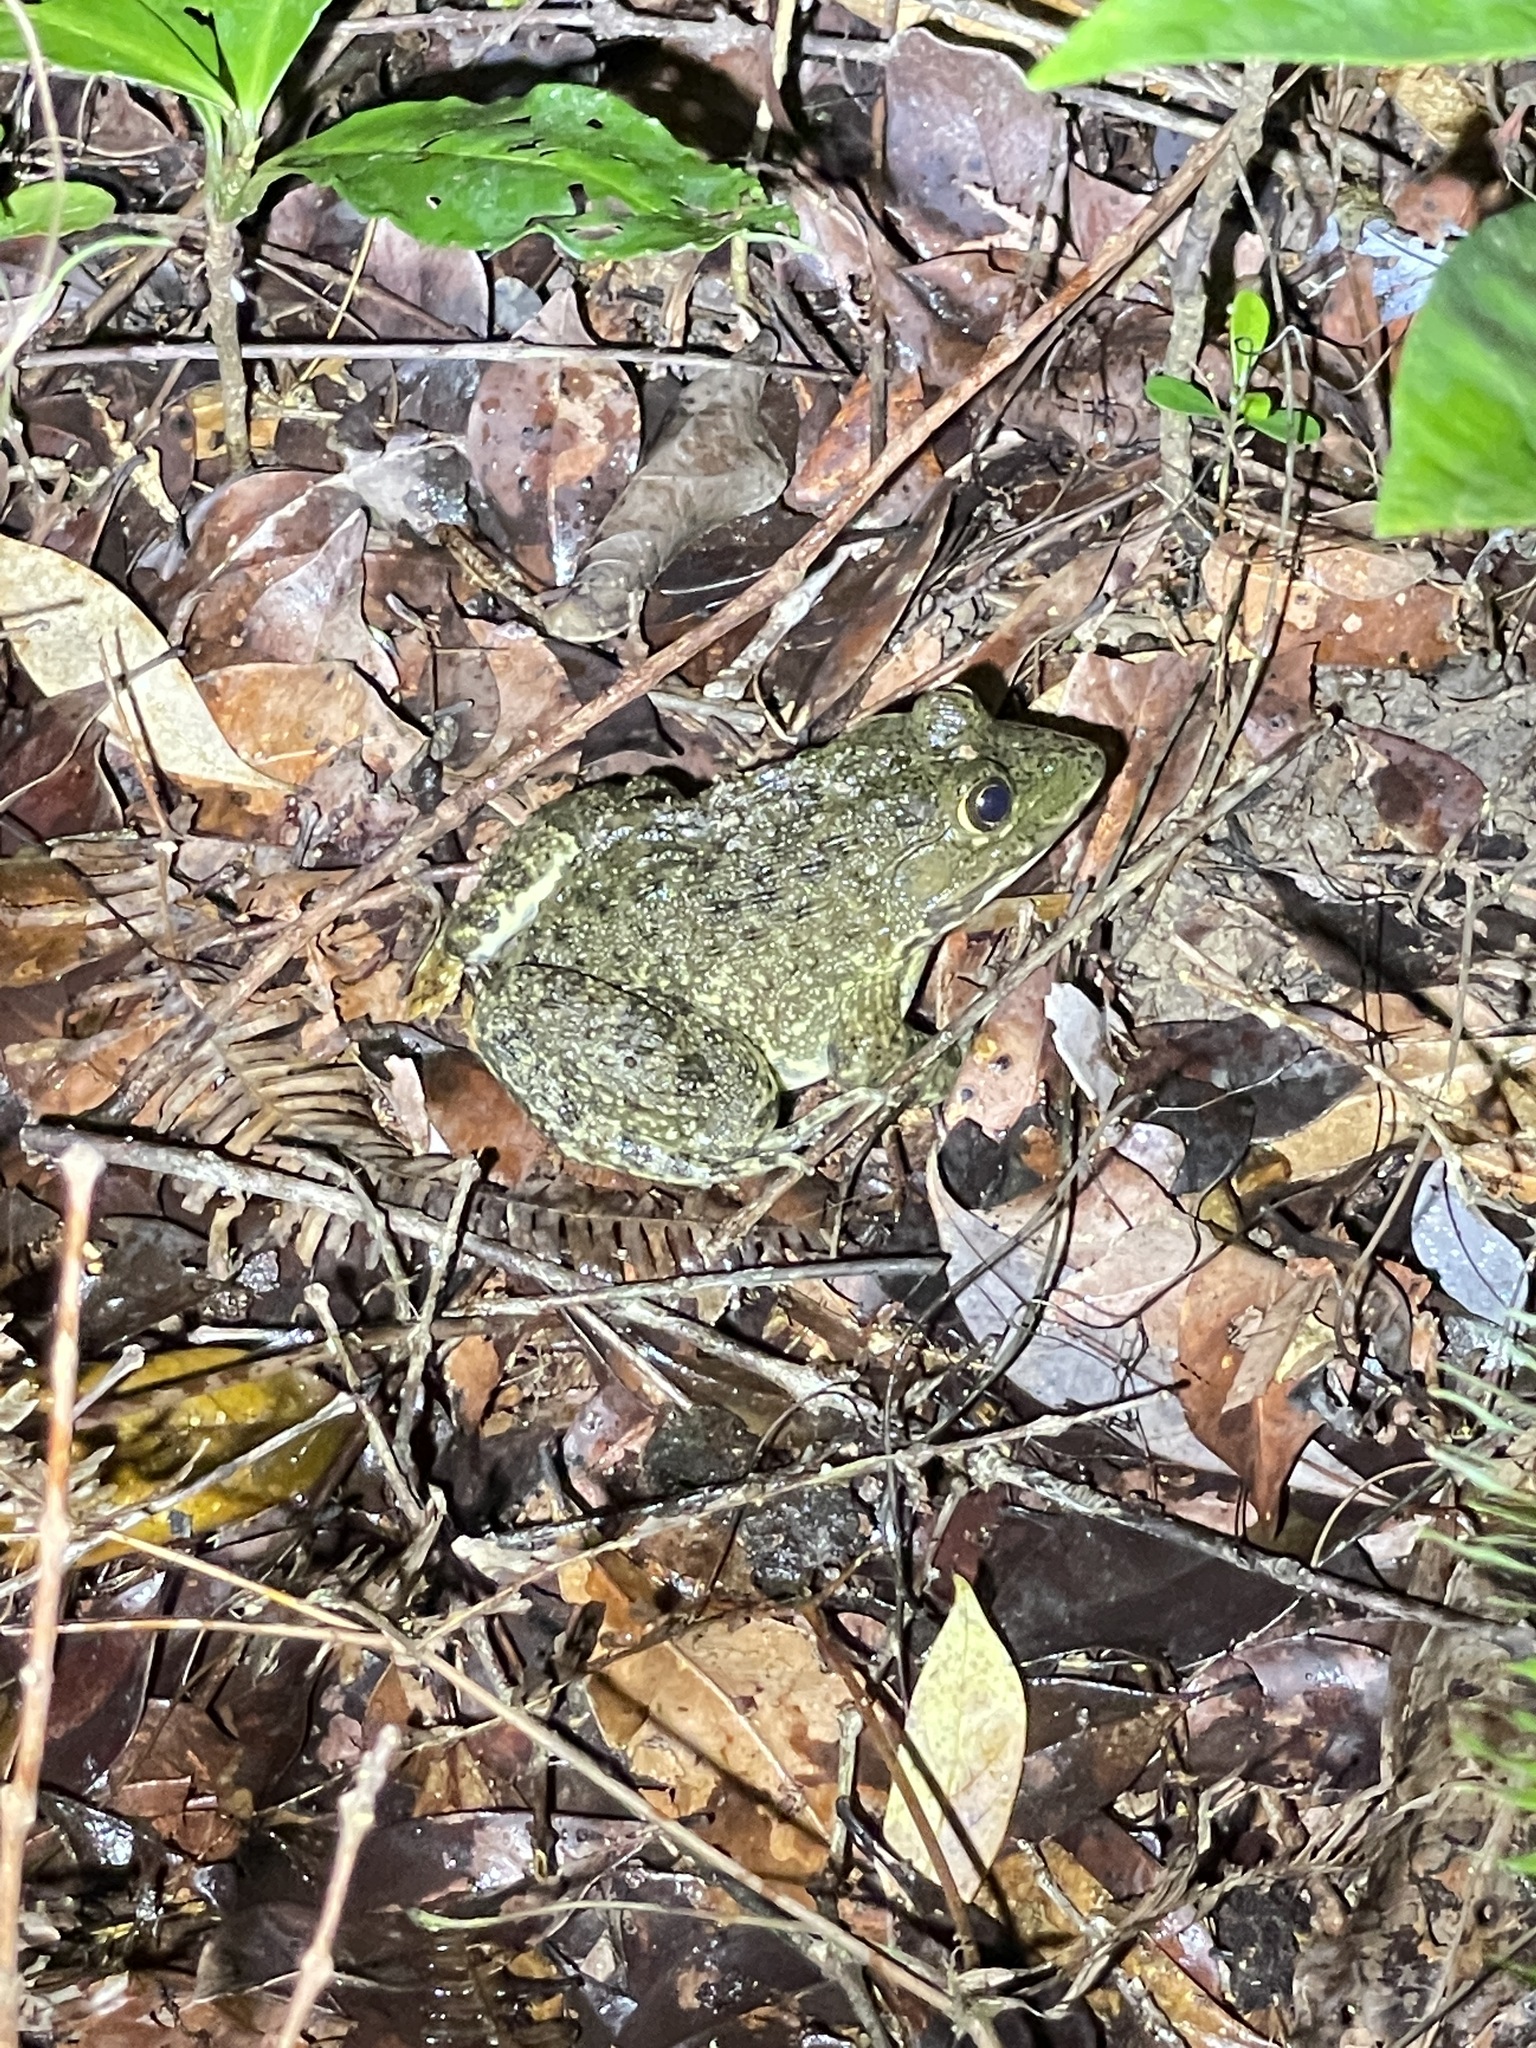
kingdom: Animalia
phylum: Chordata
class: Amphibia
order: Anura
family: Dicroglossidae
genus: Hoplobatrachus
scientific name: Hoplobatrachus rugulosus
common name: Chinese edible frog
